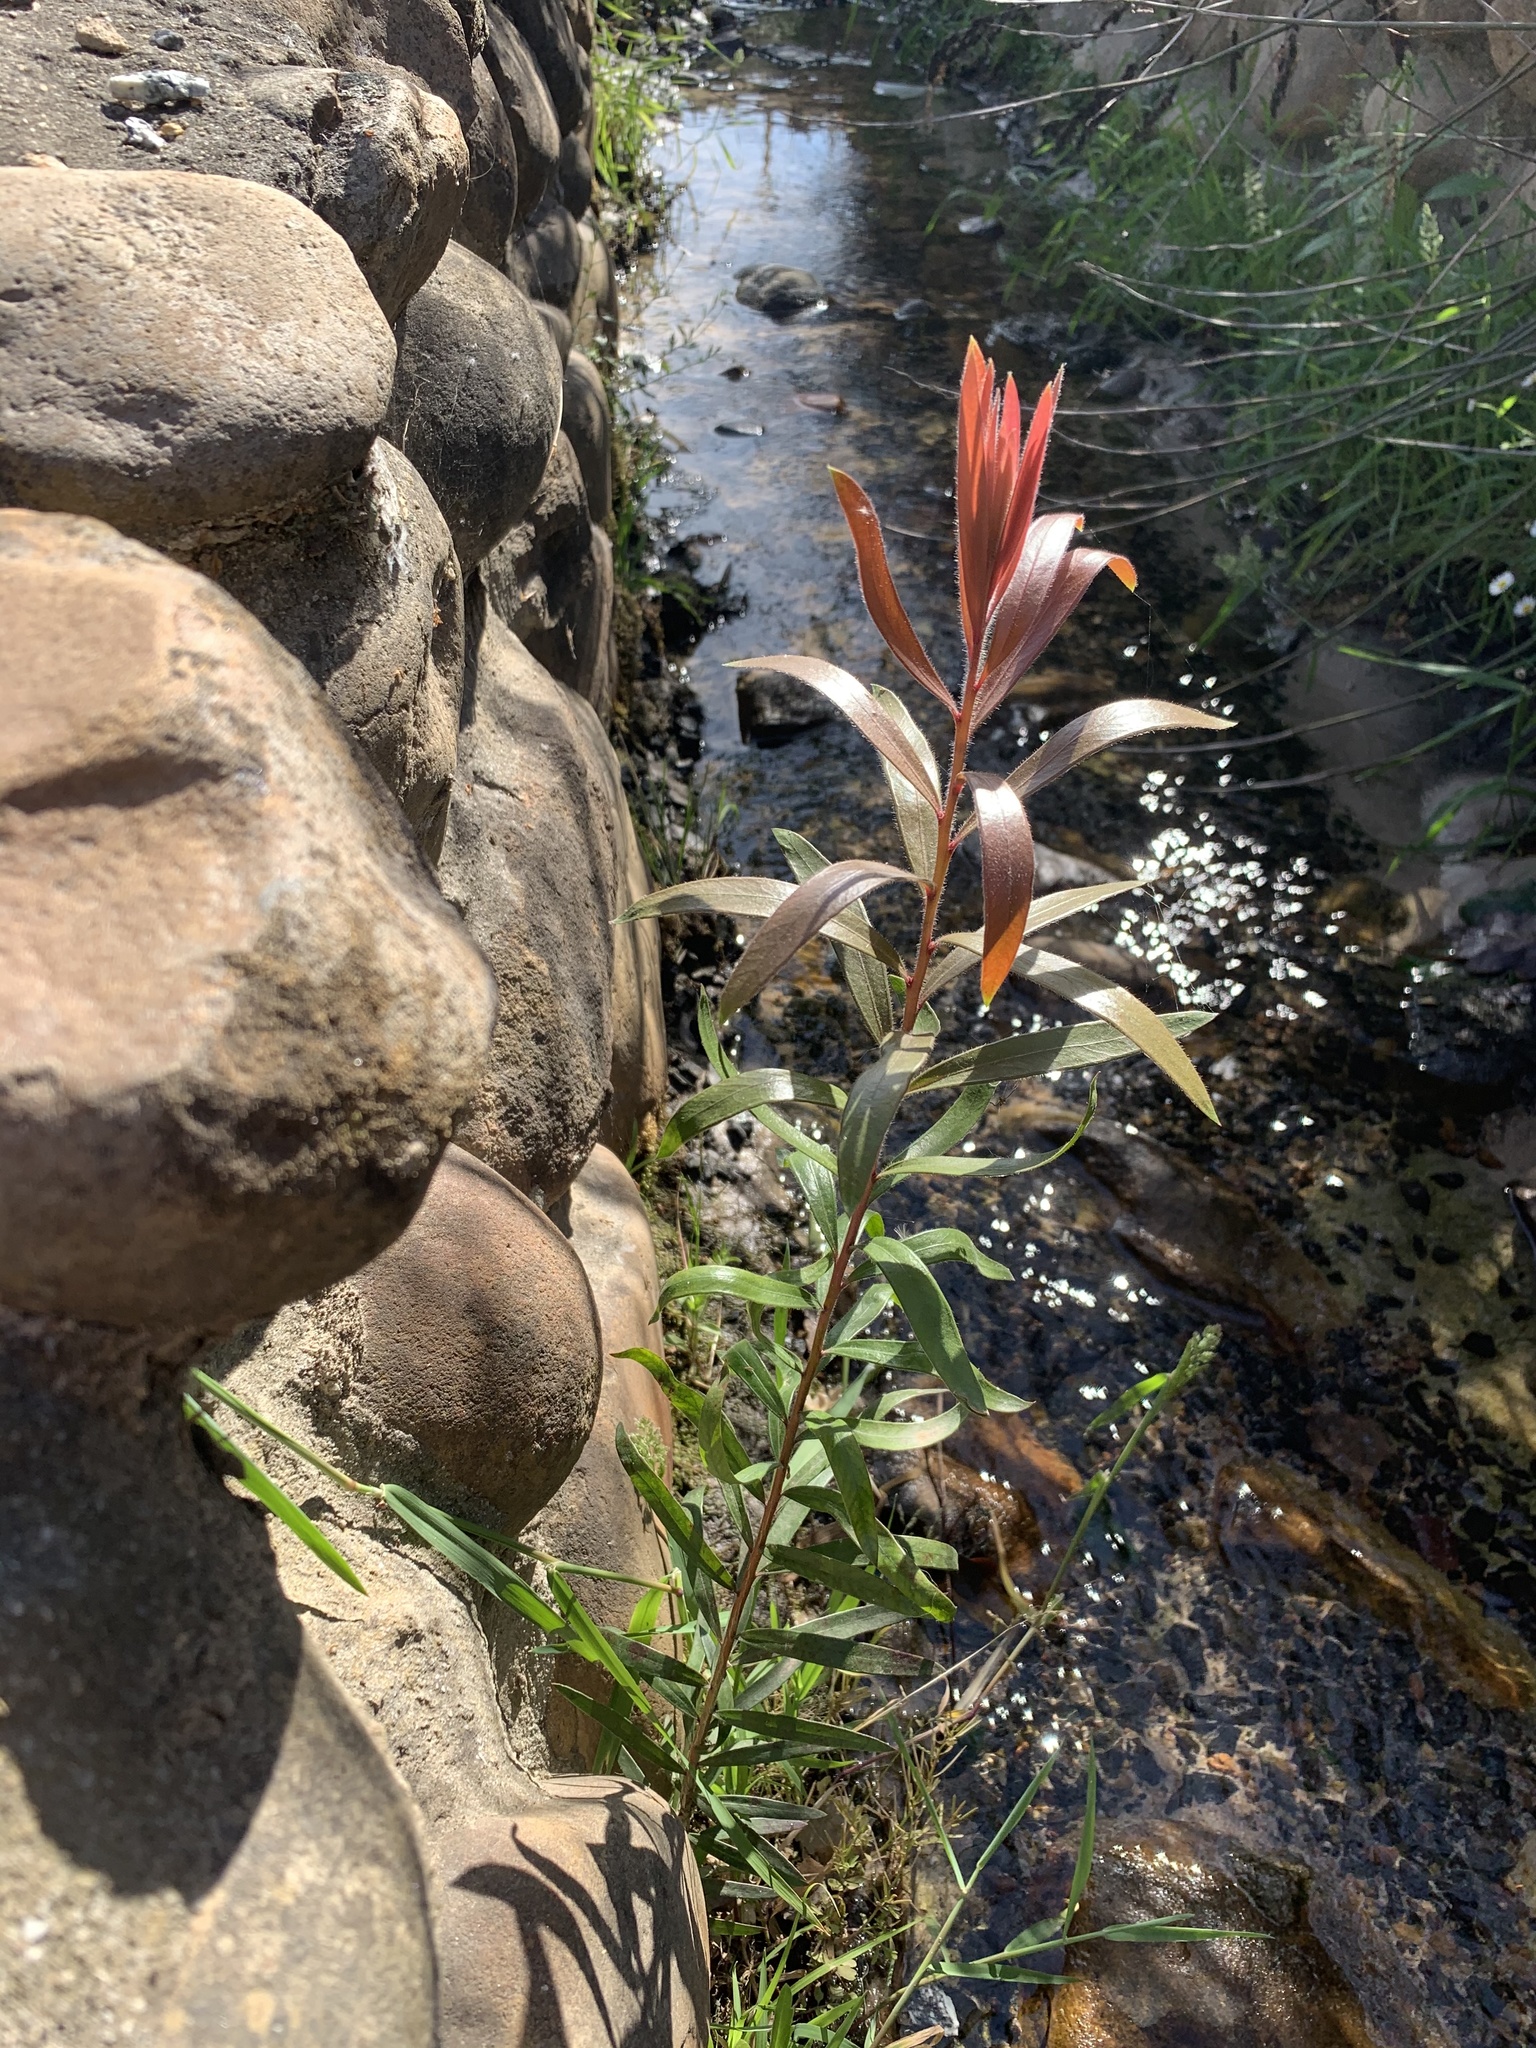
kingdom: Plantae
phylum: Tracheophyta
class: Magnoliopsida
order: Myrtales
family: Myrtaceae
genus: Callistemon
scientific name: Callistemon viminalis
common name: Drooping bottlebrush
